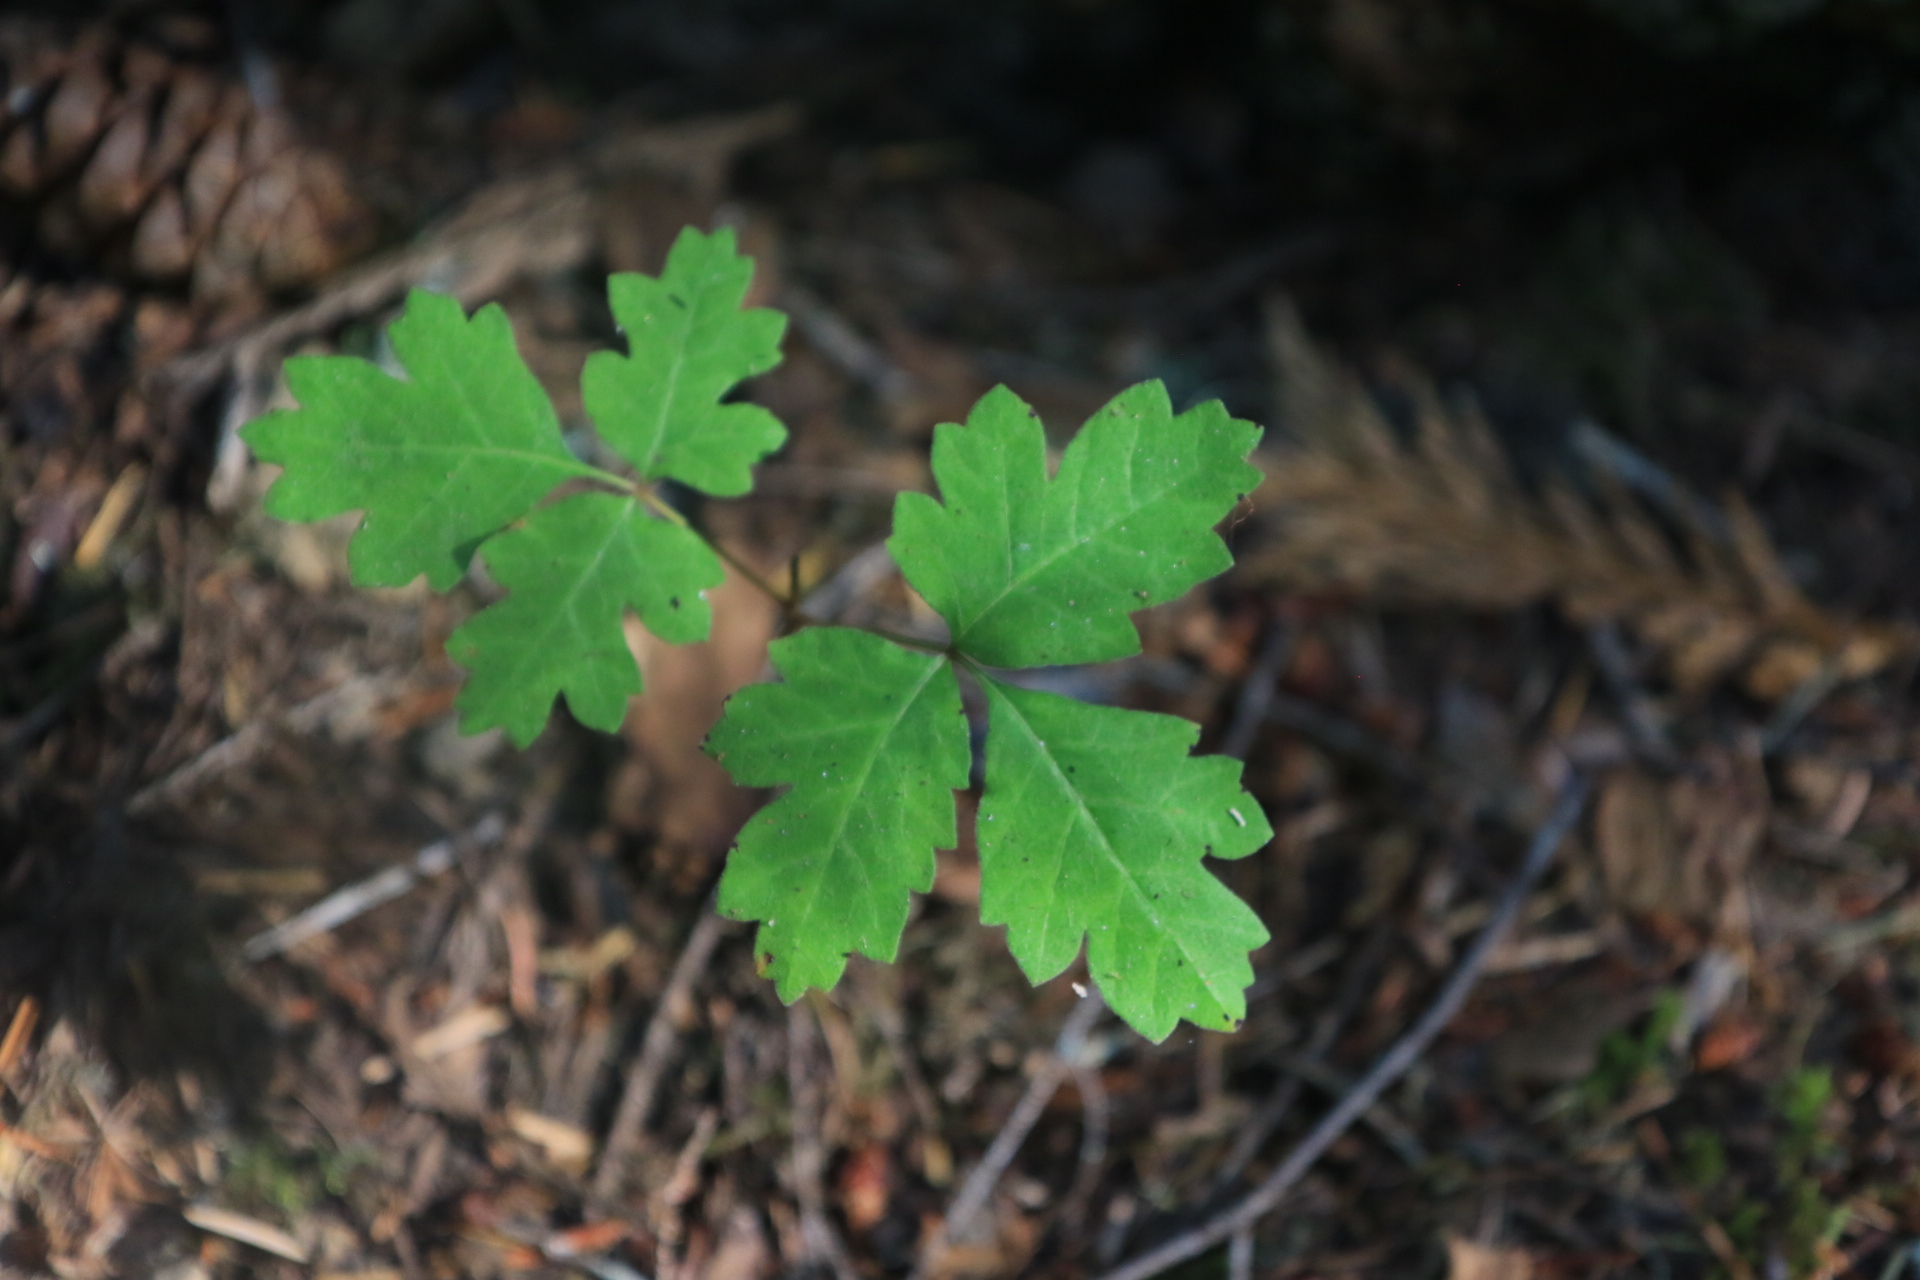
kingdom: Plantae
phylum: Tracheophyta
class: Magnoliopsida
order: Sapindales
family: Anacardiaceae
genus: Toxicodendron
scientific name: Toxicodendron diversilobum
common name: Pacific poison-oak
